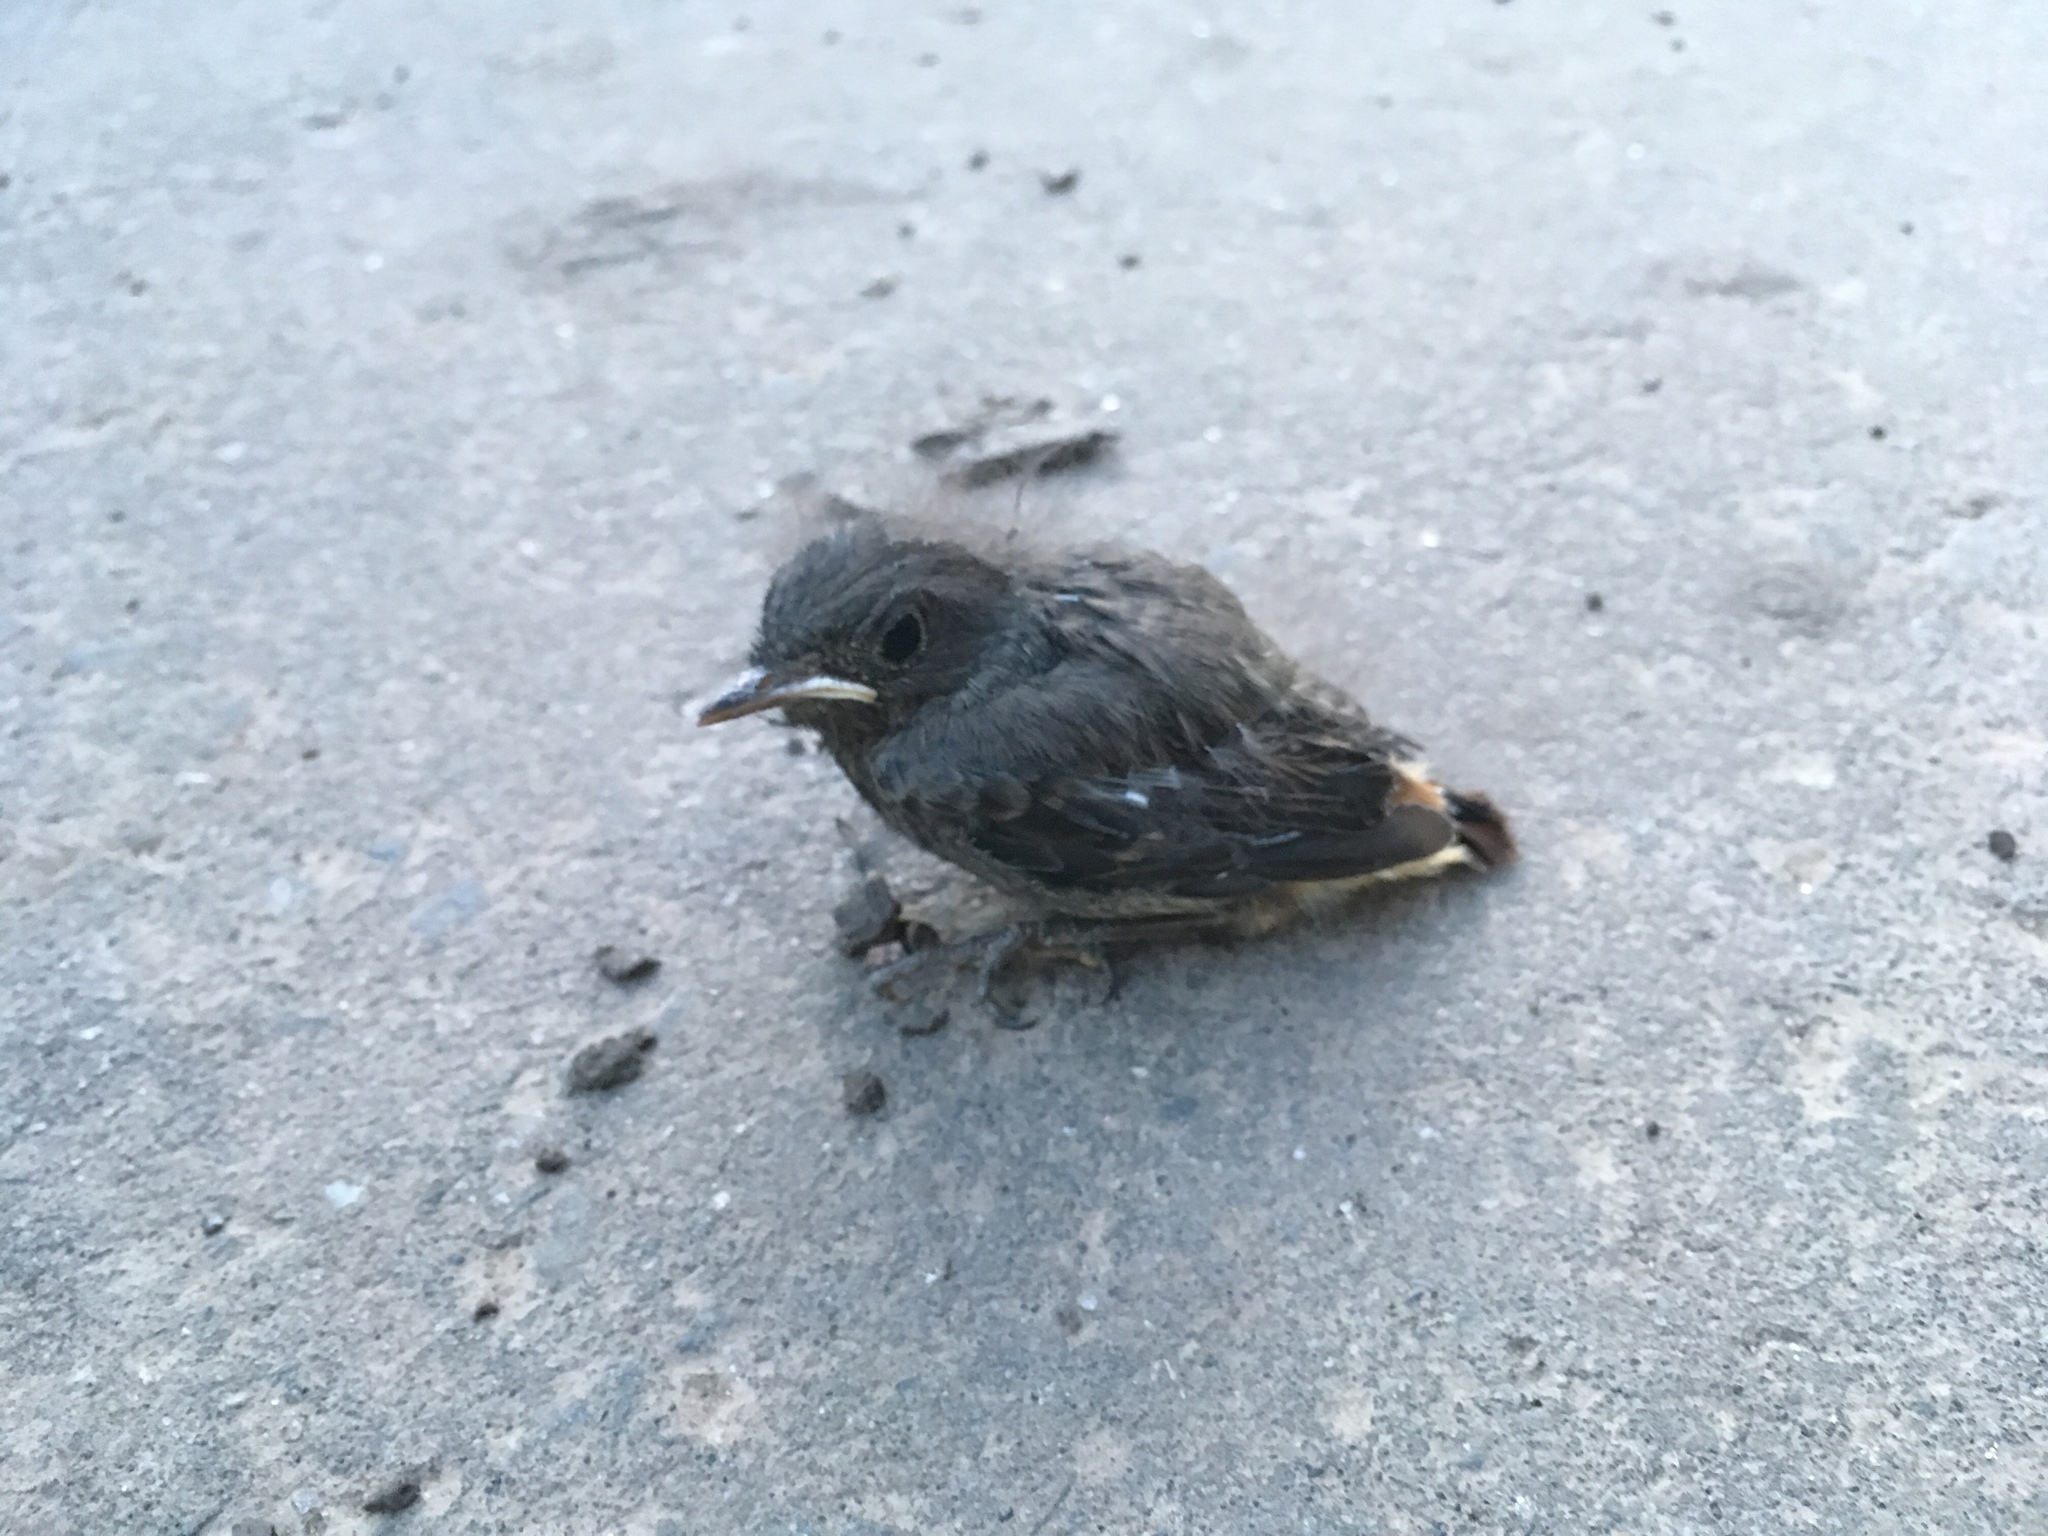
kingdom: Animalia
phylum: Chordata
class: Aves
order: Passeriformes
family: Muscicapidae
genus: Phoenicurus
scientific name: Phoenicurus ochruros
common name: Black redstart
